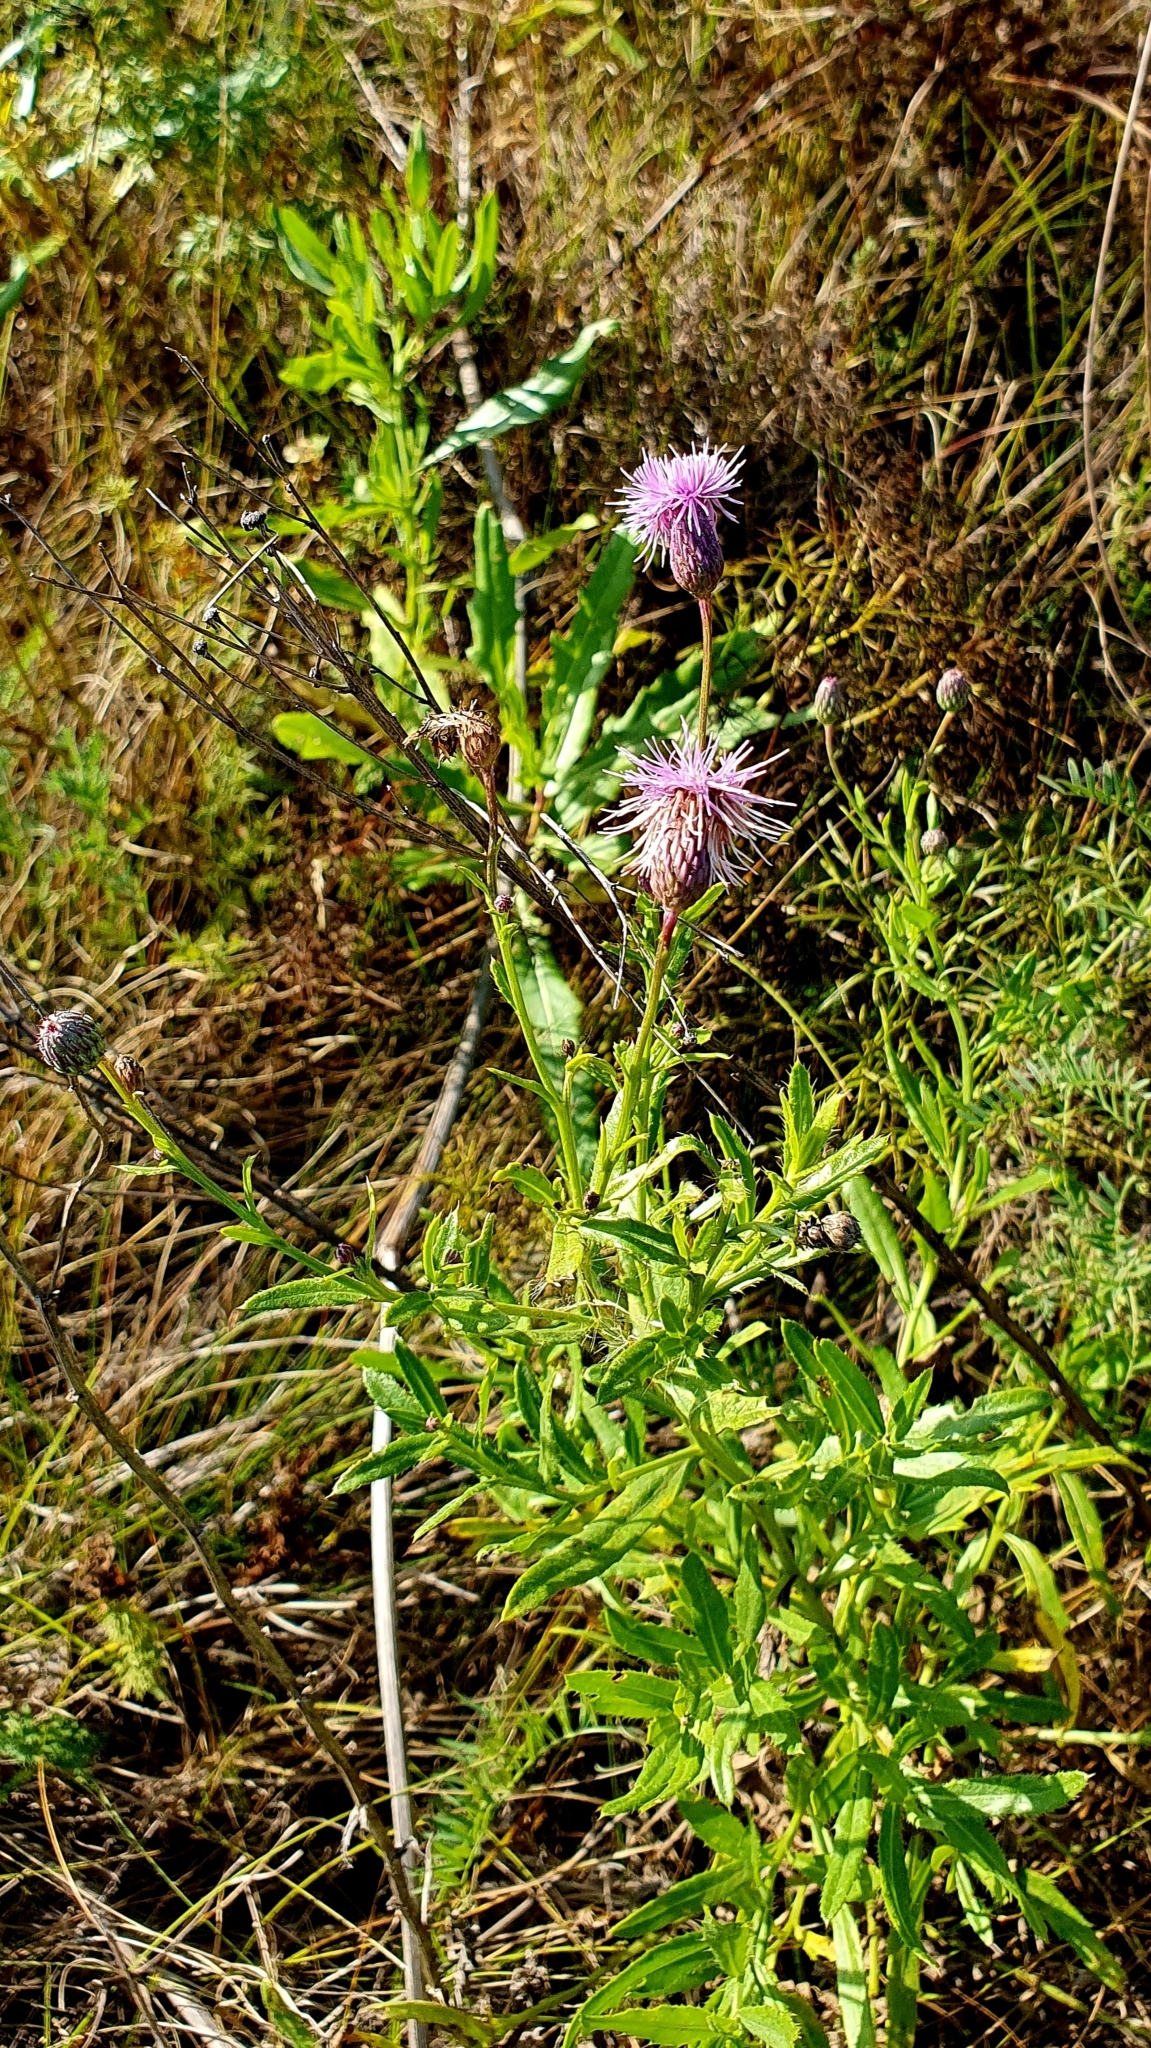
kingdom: Plantae
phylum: Tracheophyta
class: Magnoliopsida
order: Asterales
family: Asteraceae
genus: Cirsium
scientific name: Cirsium arvense
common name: Creeping thistle
